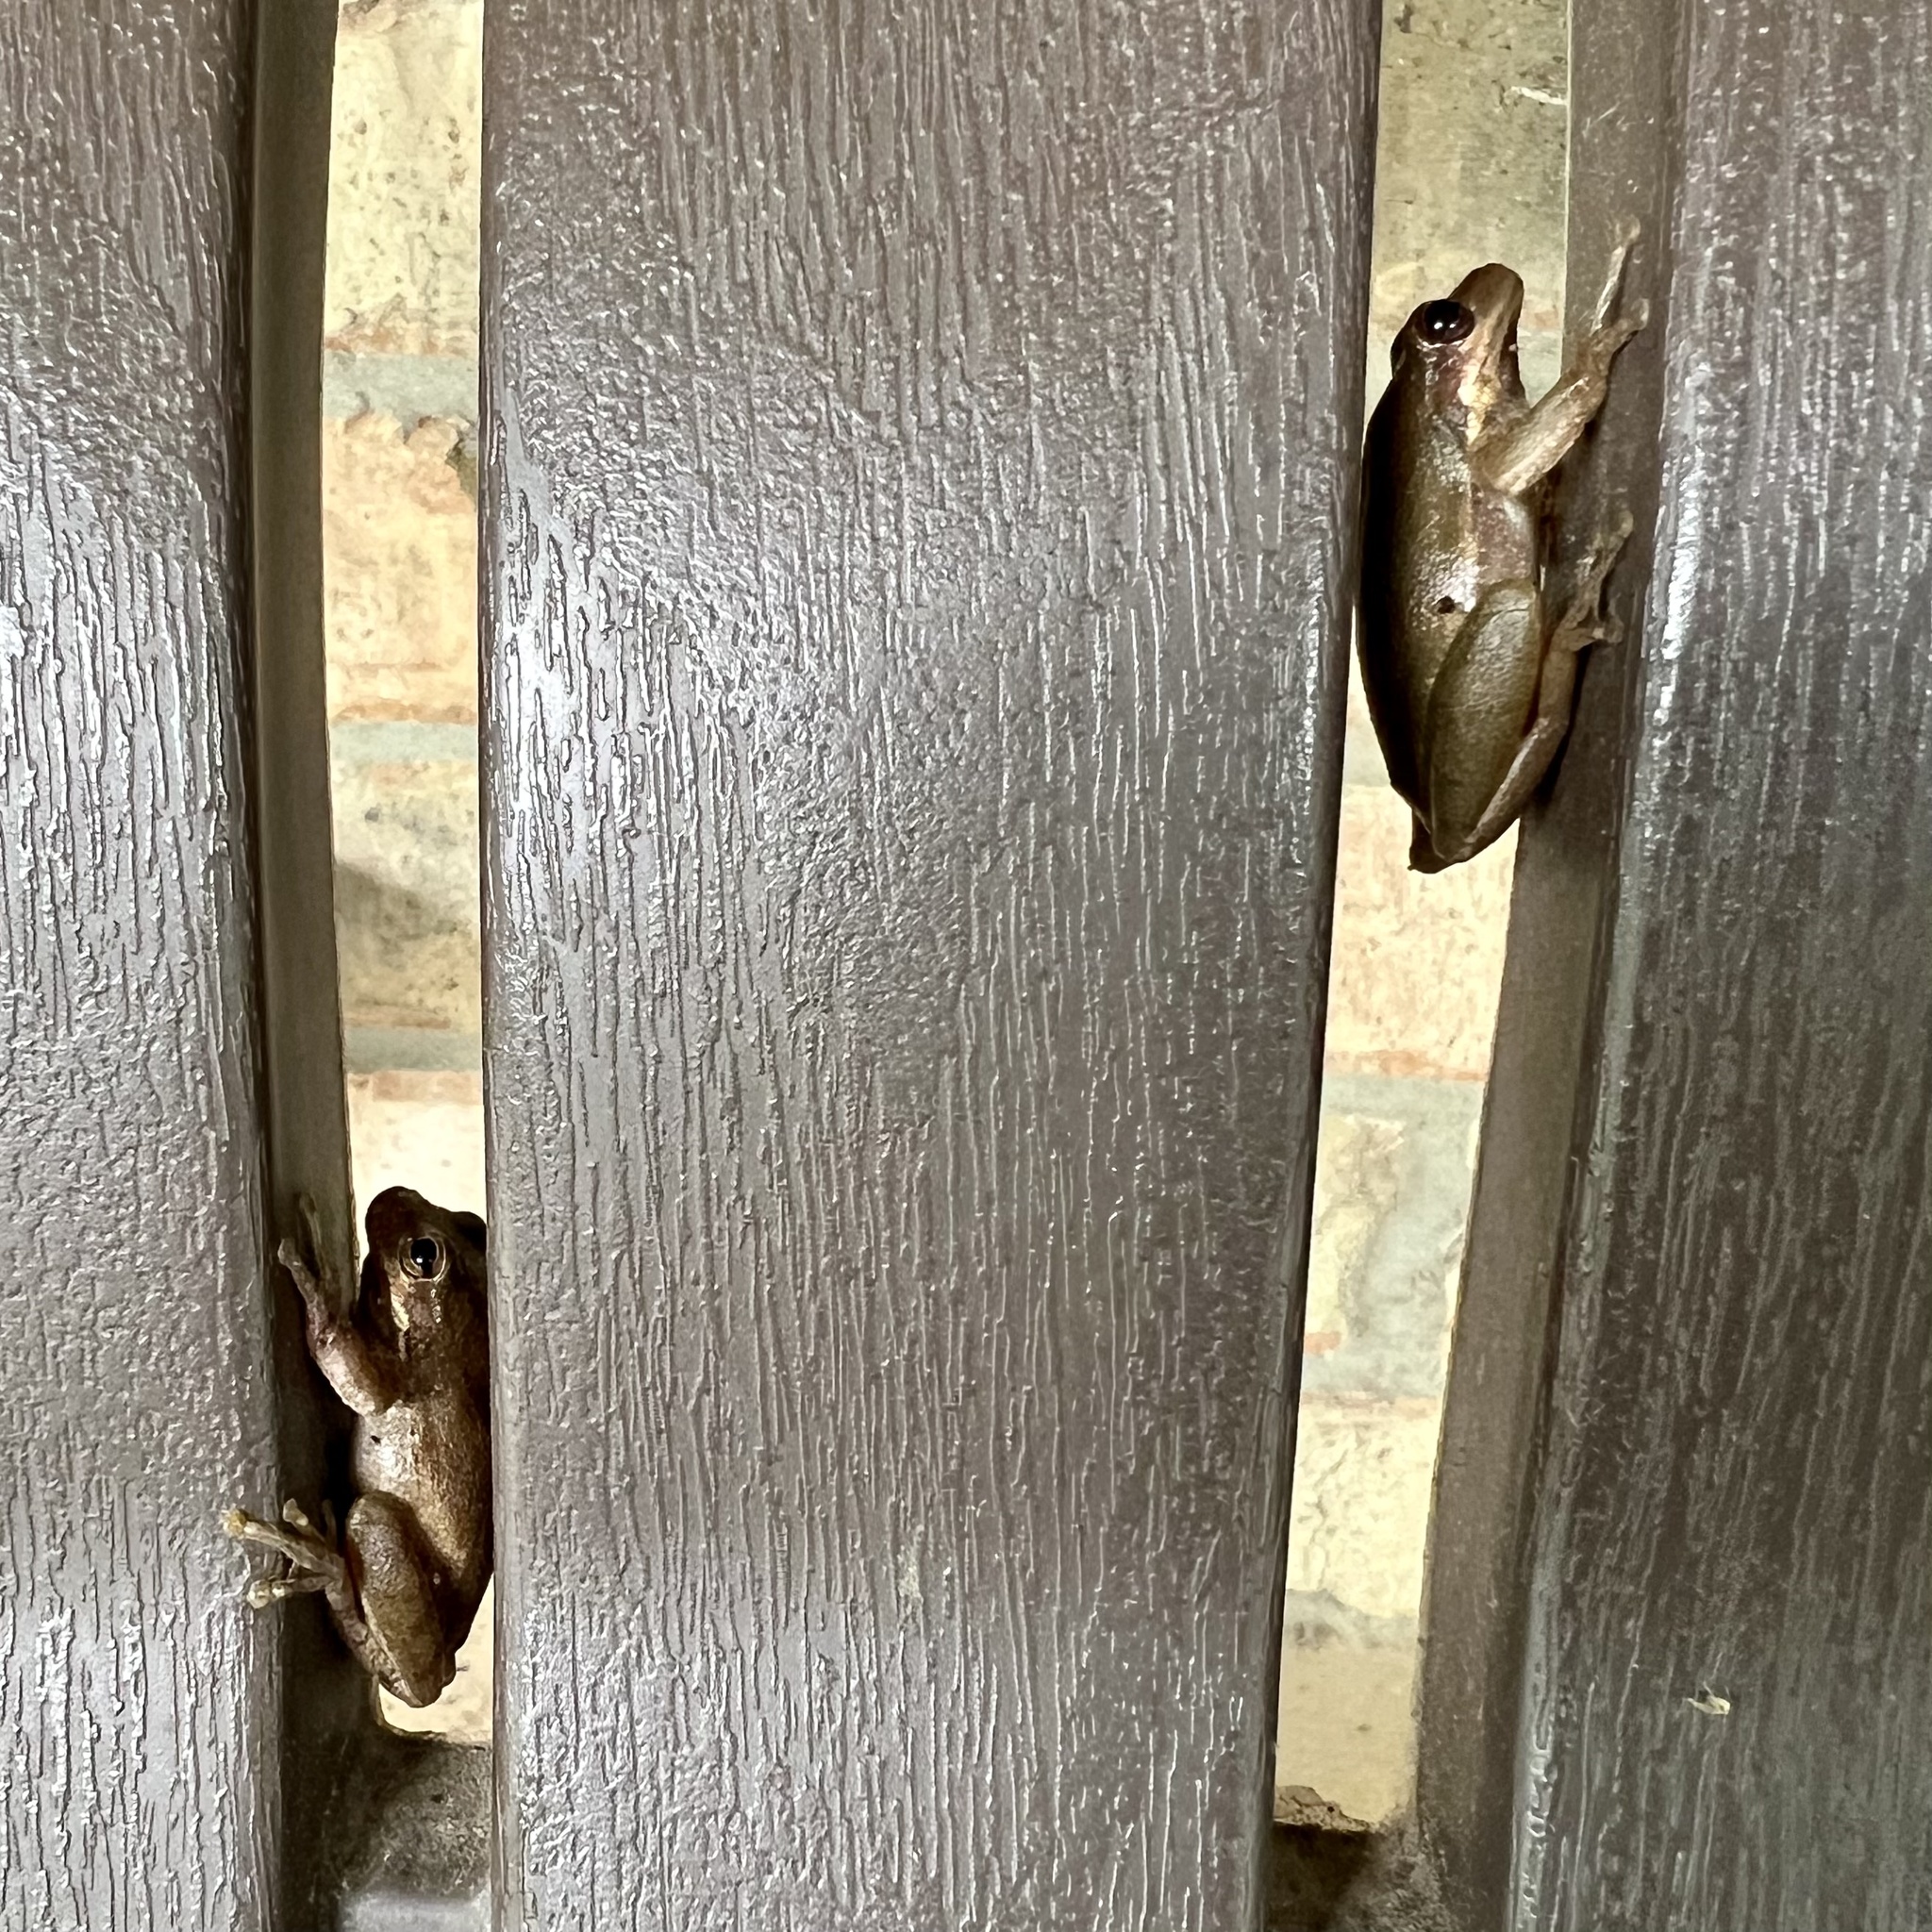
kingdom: Animalia
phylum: Chordata
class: Amphibia
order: Anura
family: Hylidae
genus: Dryophytes
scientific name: Dryophytes squirellus
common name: Squirrel treefrog
